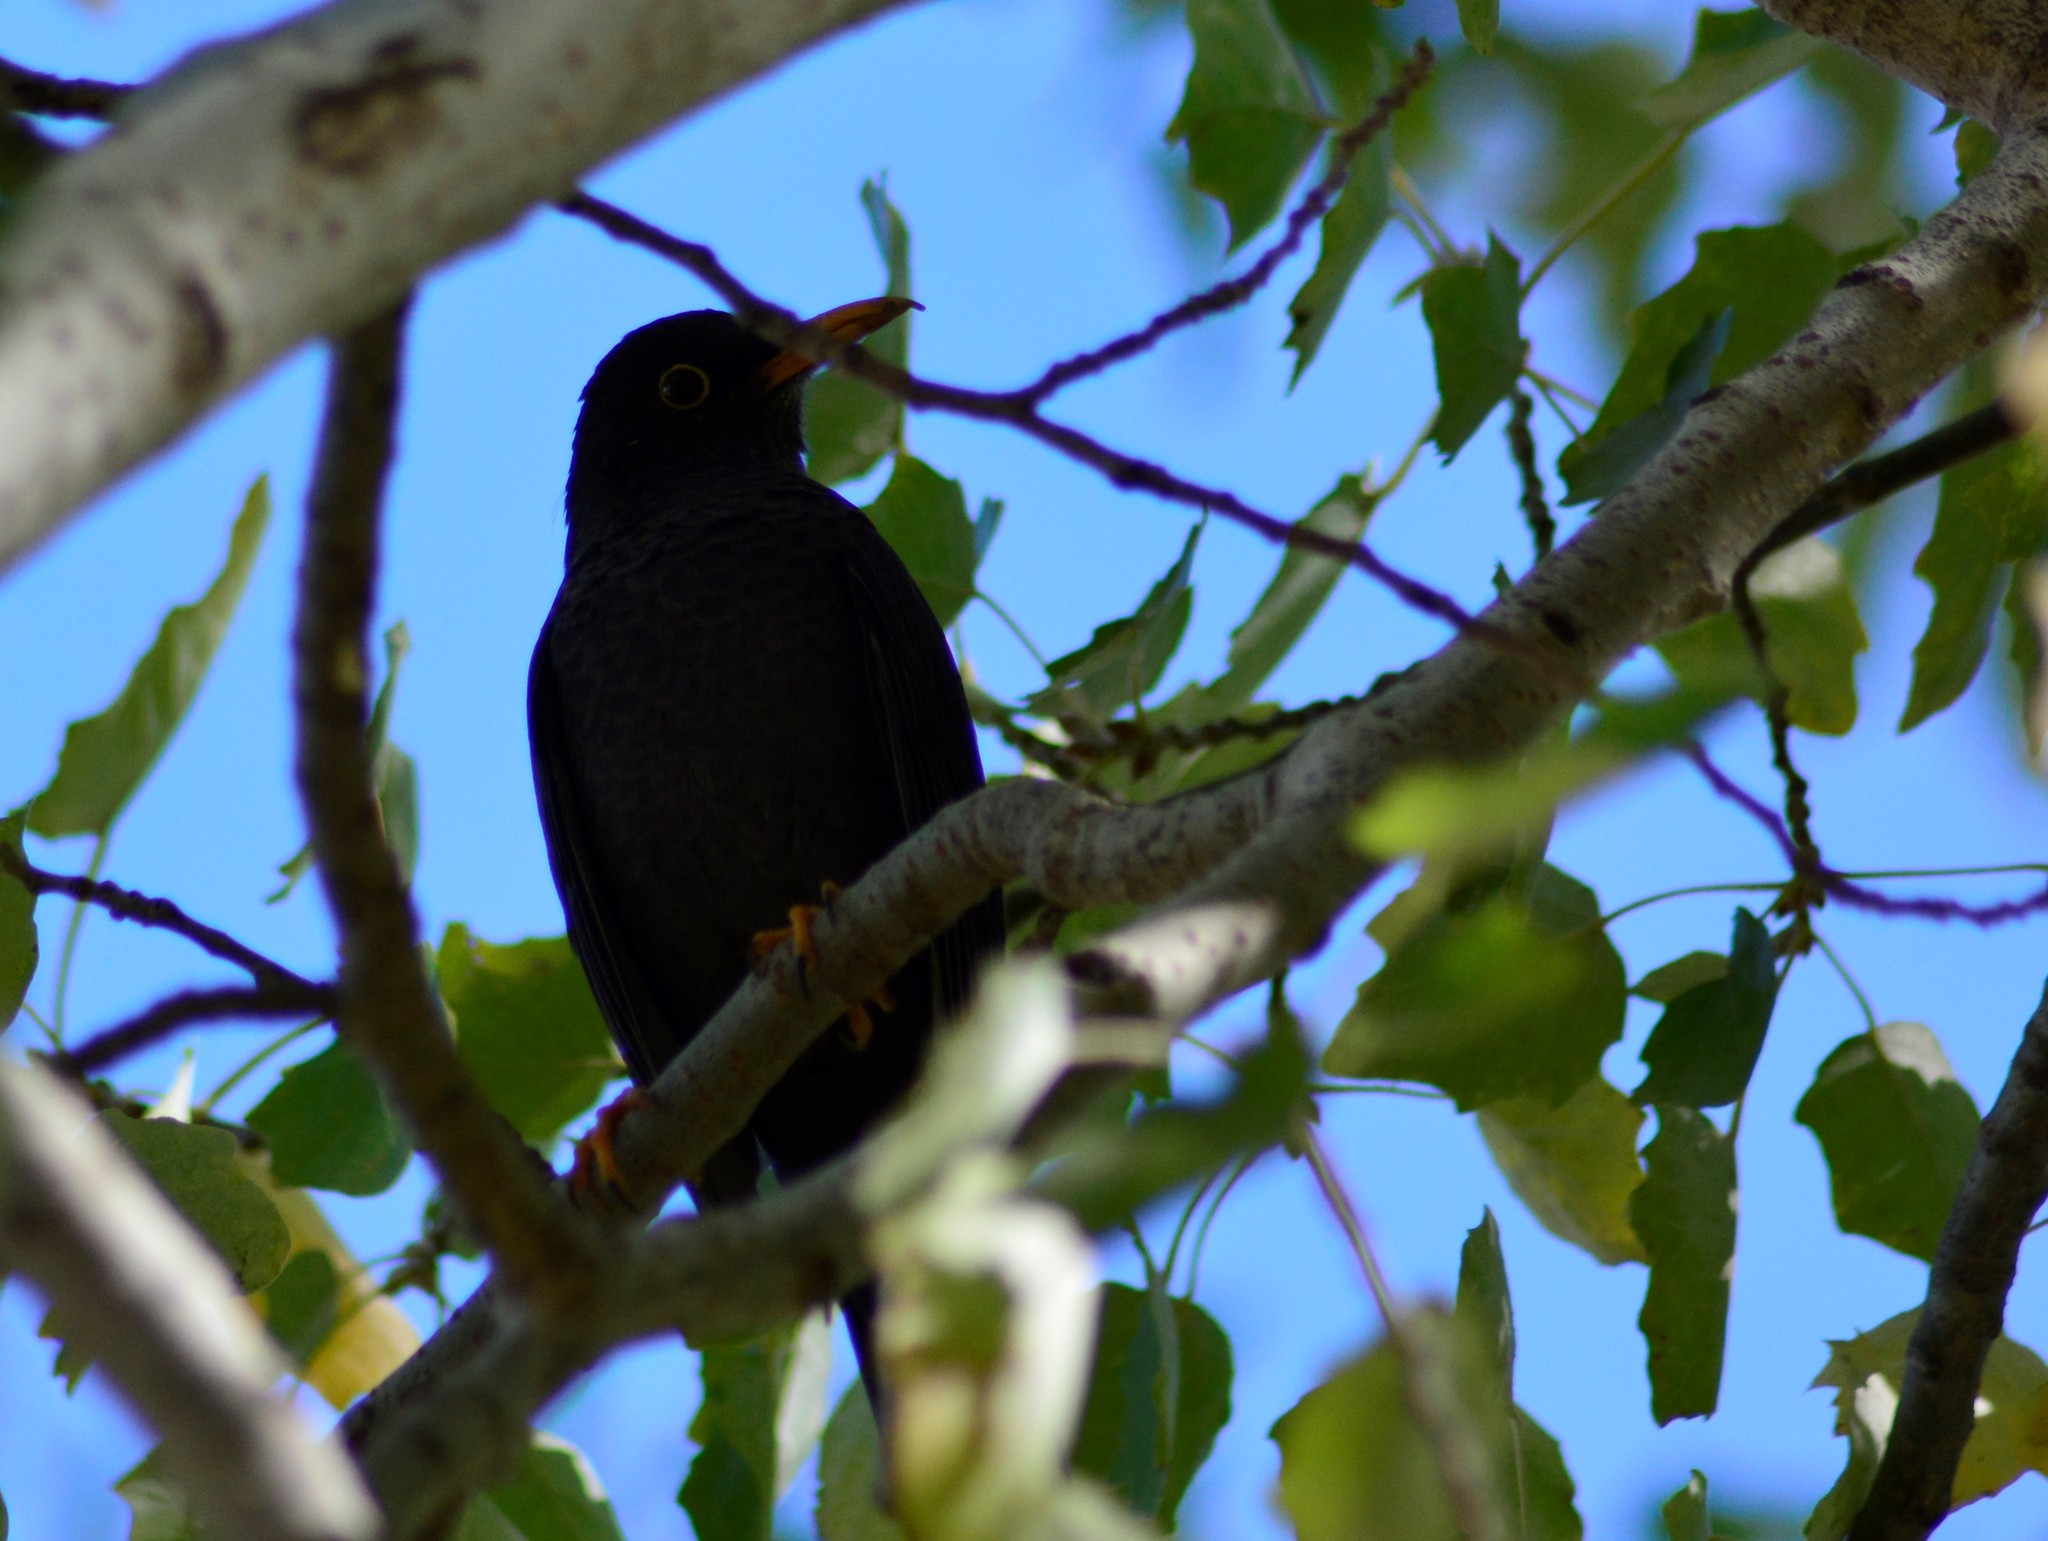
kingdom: Animalia
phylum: Chordata
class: Aves
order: Passeriformes
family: Turdidae
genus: Turdus
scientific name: Turdus chiguanco
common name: Chiguanco thrush
